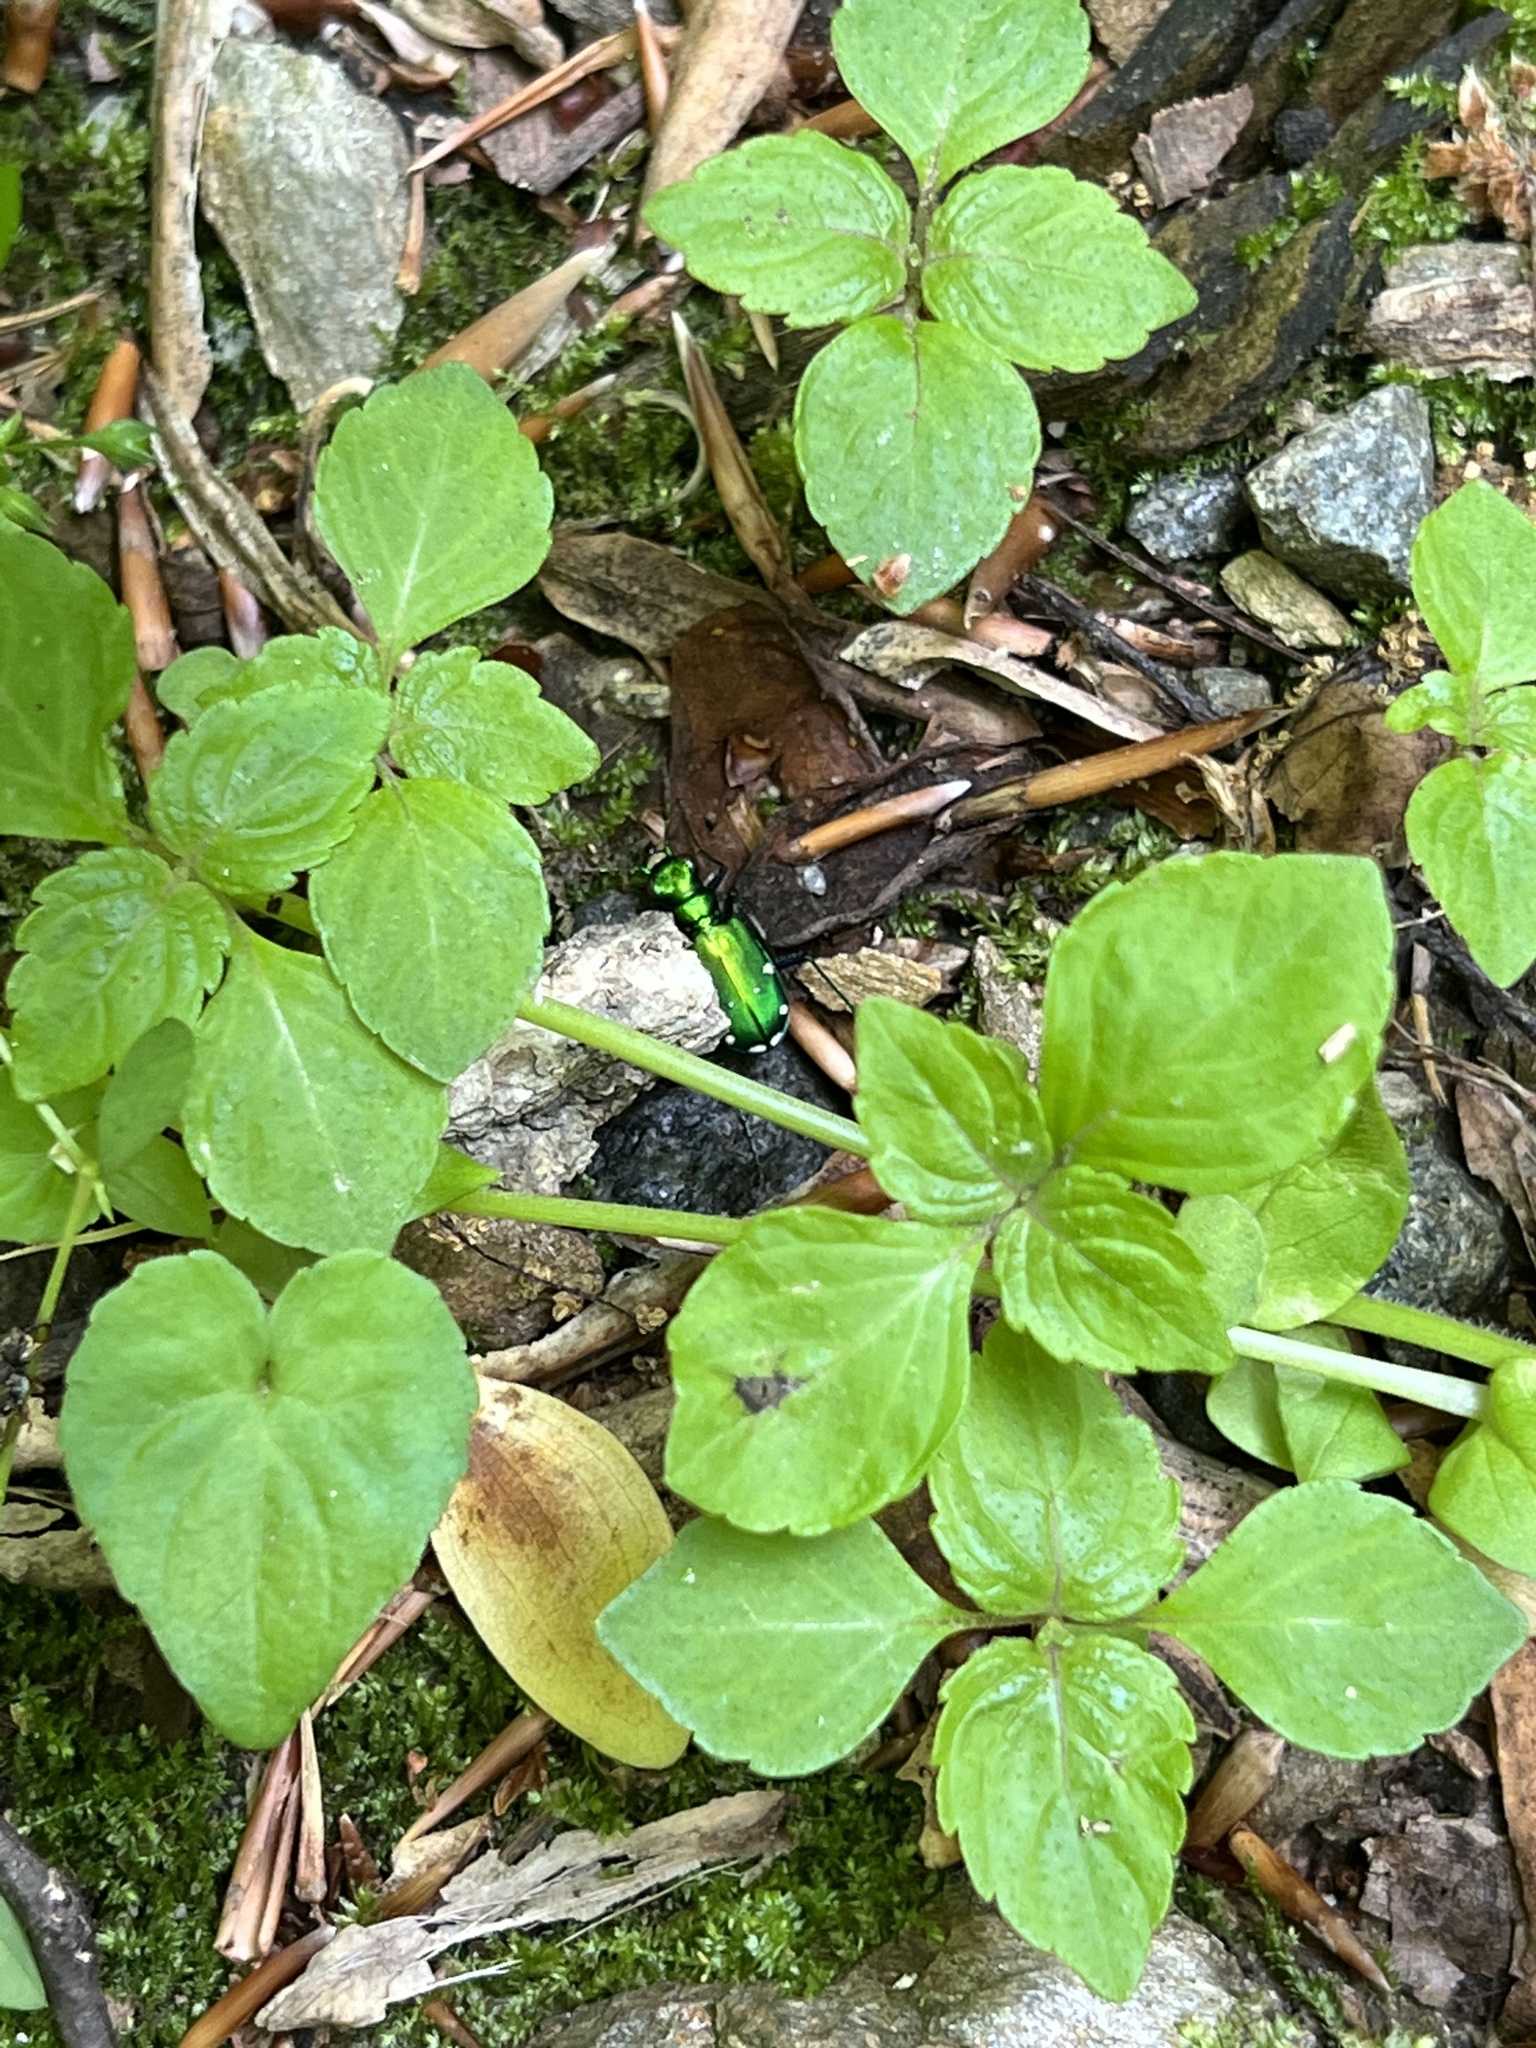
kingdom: Animalia
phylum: Arthropoda
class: Insecta
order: Coleoptera
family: Carabidae
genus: Cicindela
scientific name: Cicindela sexguttata
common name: Six-spotted tiger beetle
